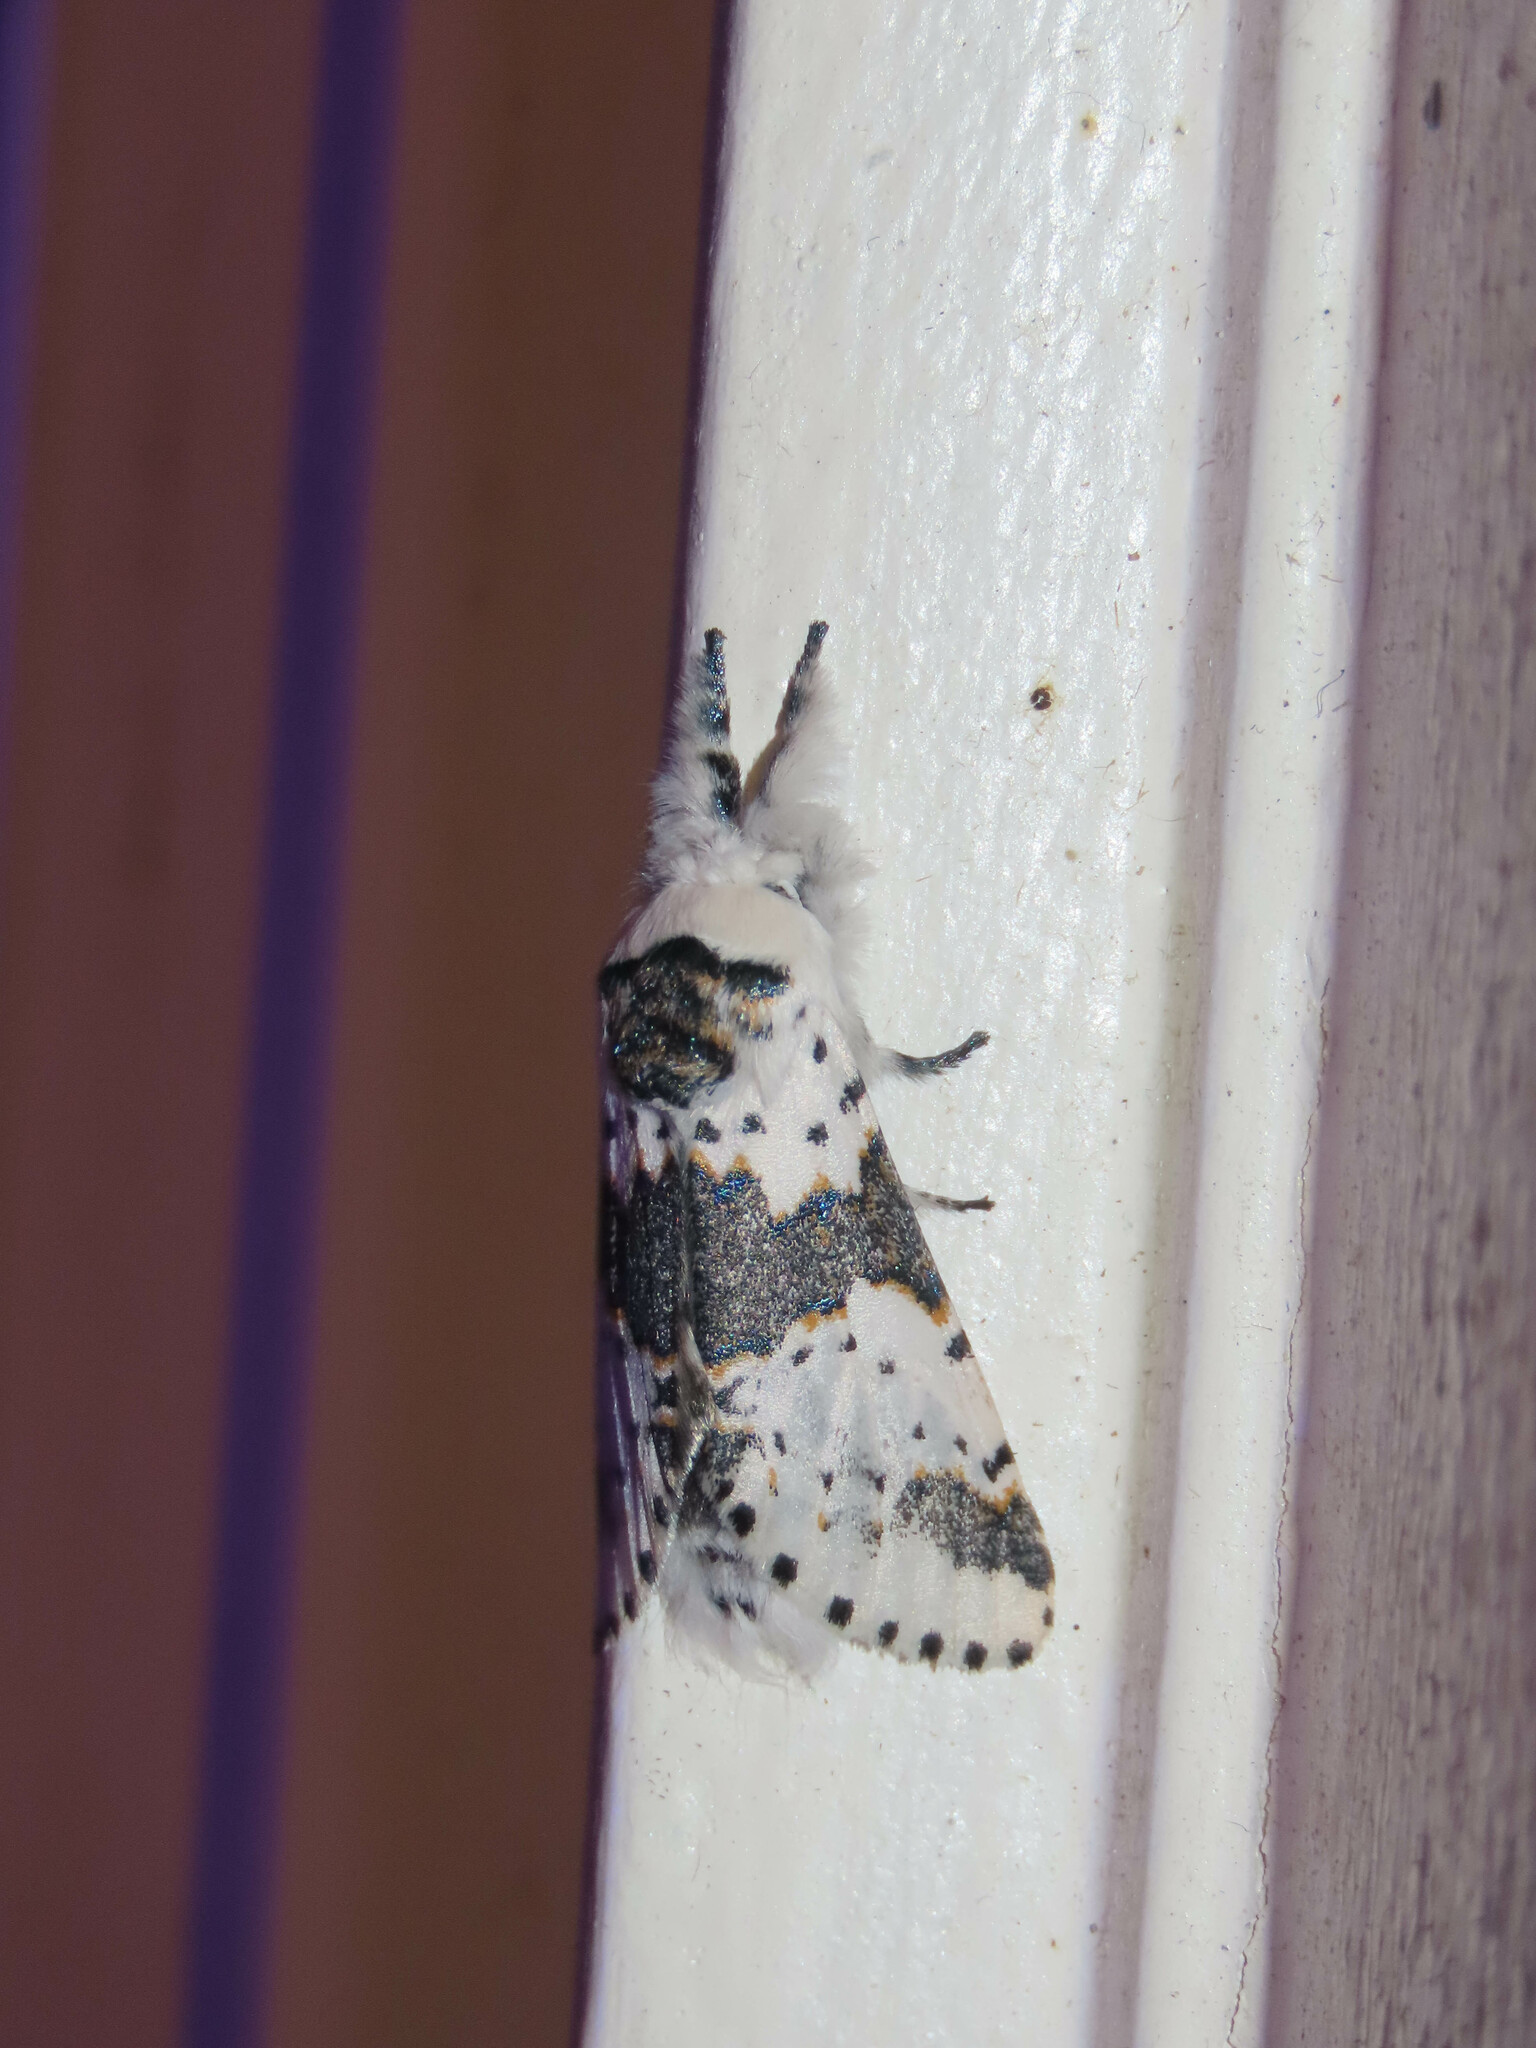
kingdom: Animalia
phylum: Arthropoda
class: Insecta
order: Lepidoptera
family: Notodontidae
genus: Furcula
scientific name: Furcula borealis
